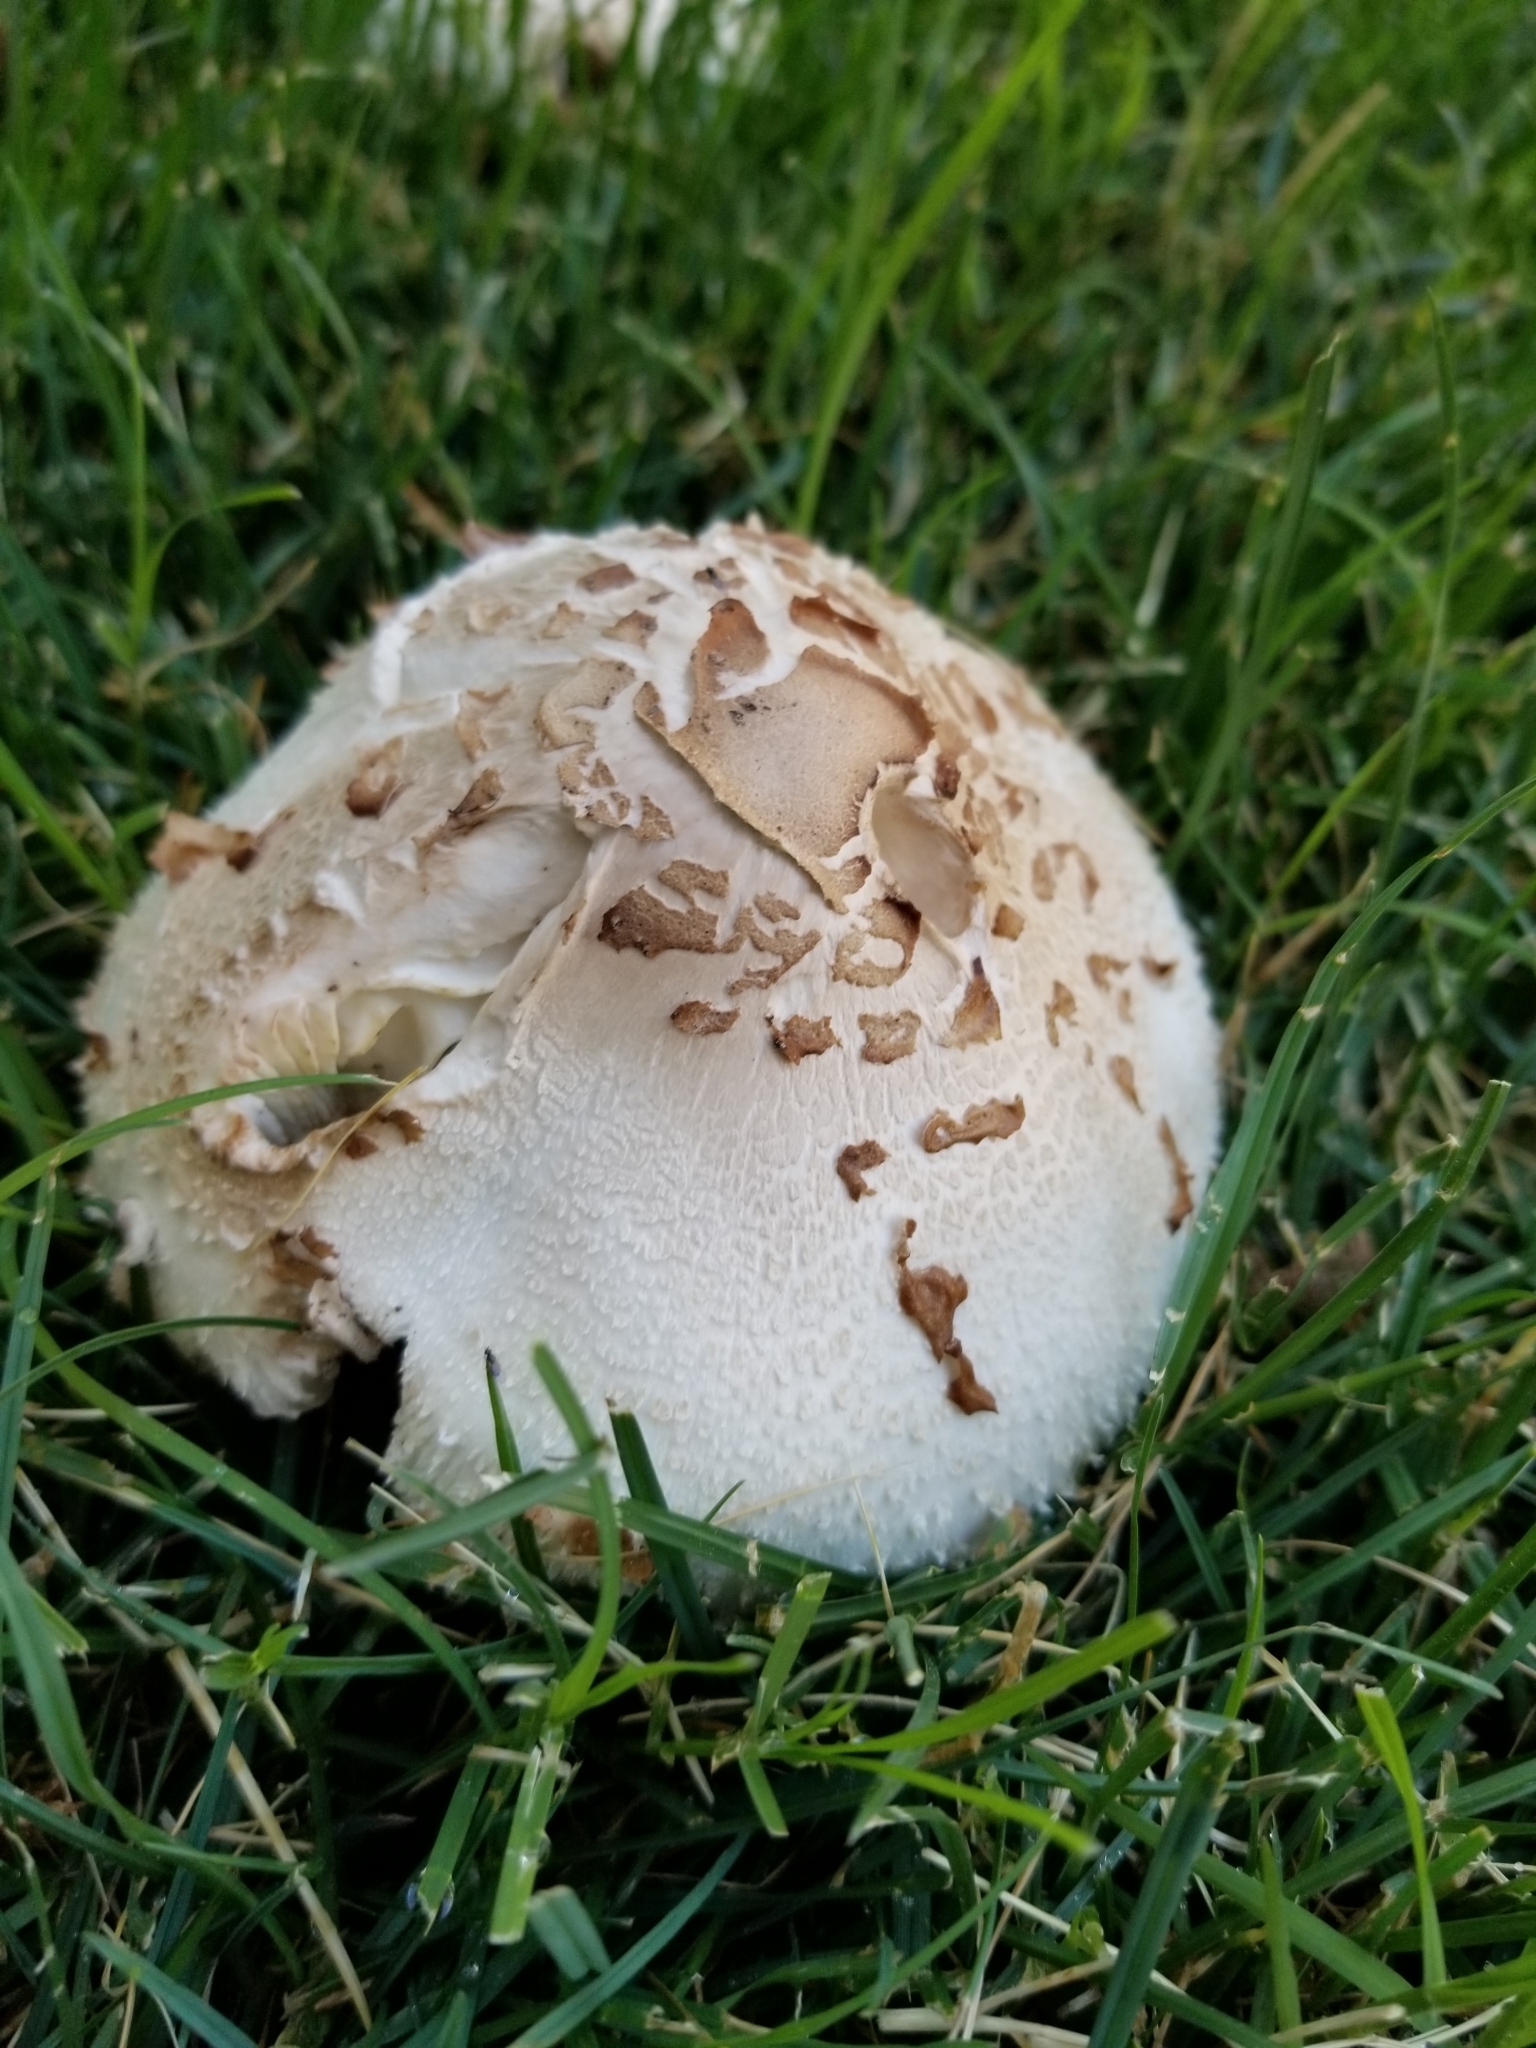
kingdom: Fungi
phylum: Basidiomycota
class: Agaricomycetes
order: Agaricales
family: Agaricaceae
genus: Chlorophyllum
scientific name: Chlorophyllum molybdites
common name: False parasol
